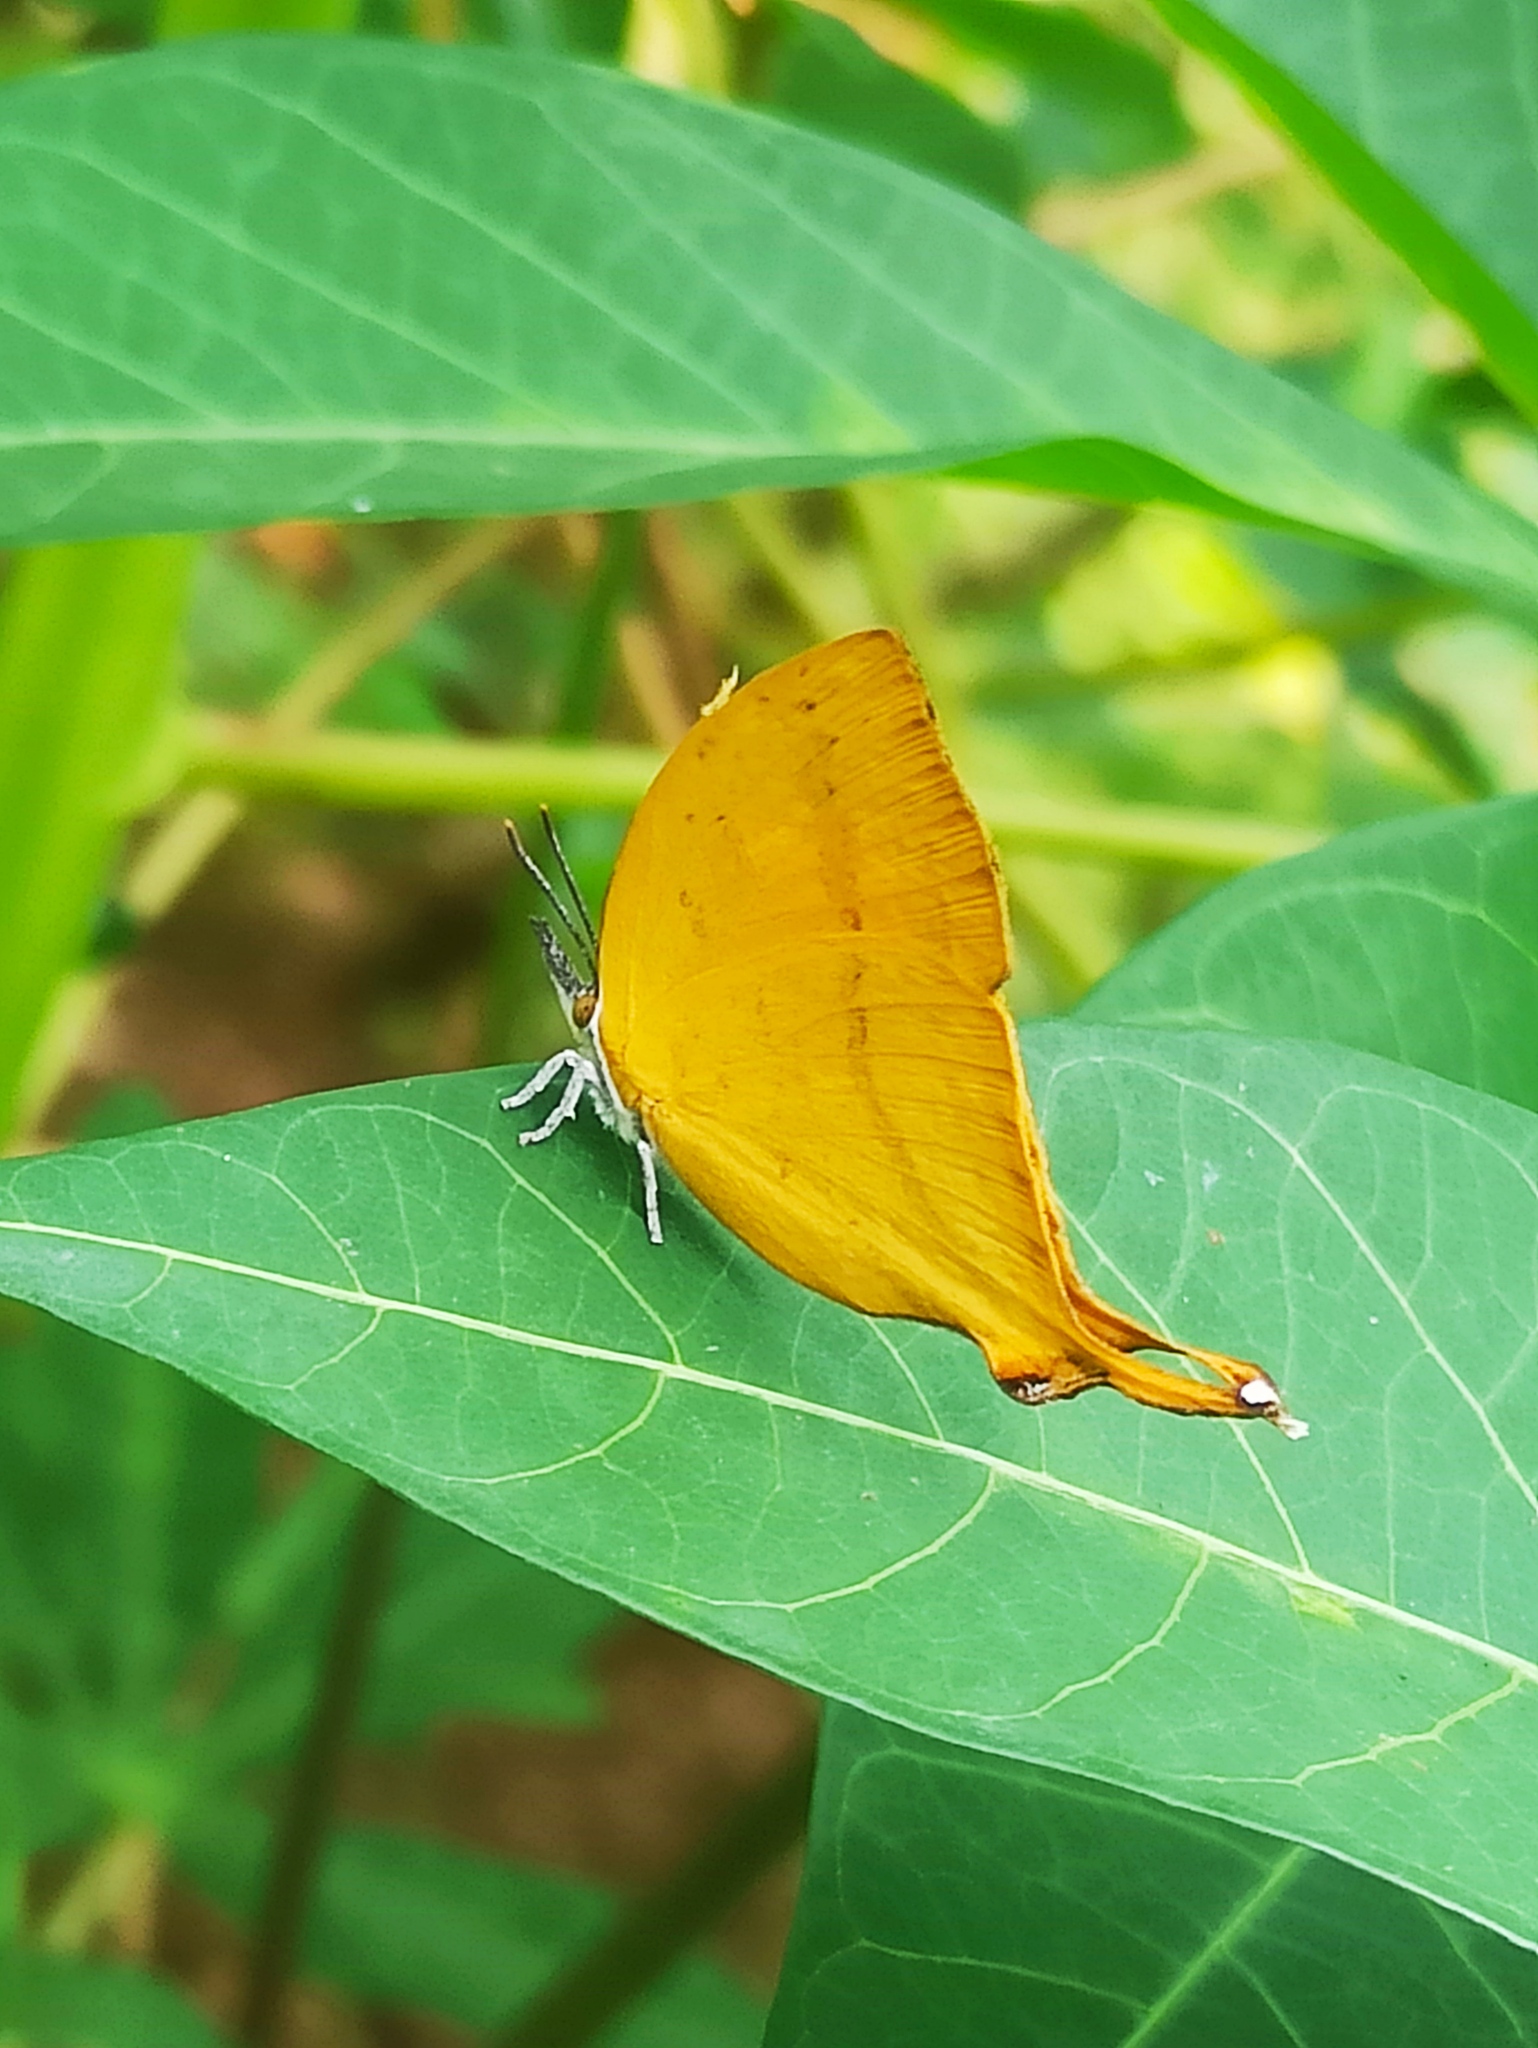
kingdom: Animalia
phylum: Arthropoda
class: Insecta
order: Lepidoptera
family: Lycaenidae
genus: Loxura
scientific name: Loxura atymnus
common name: Common yamfly
